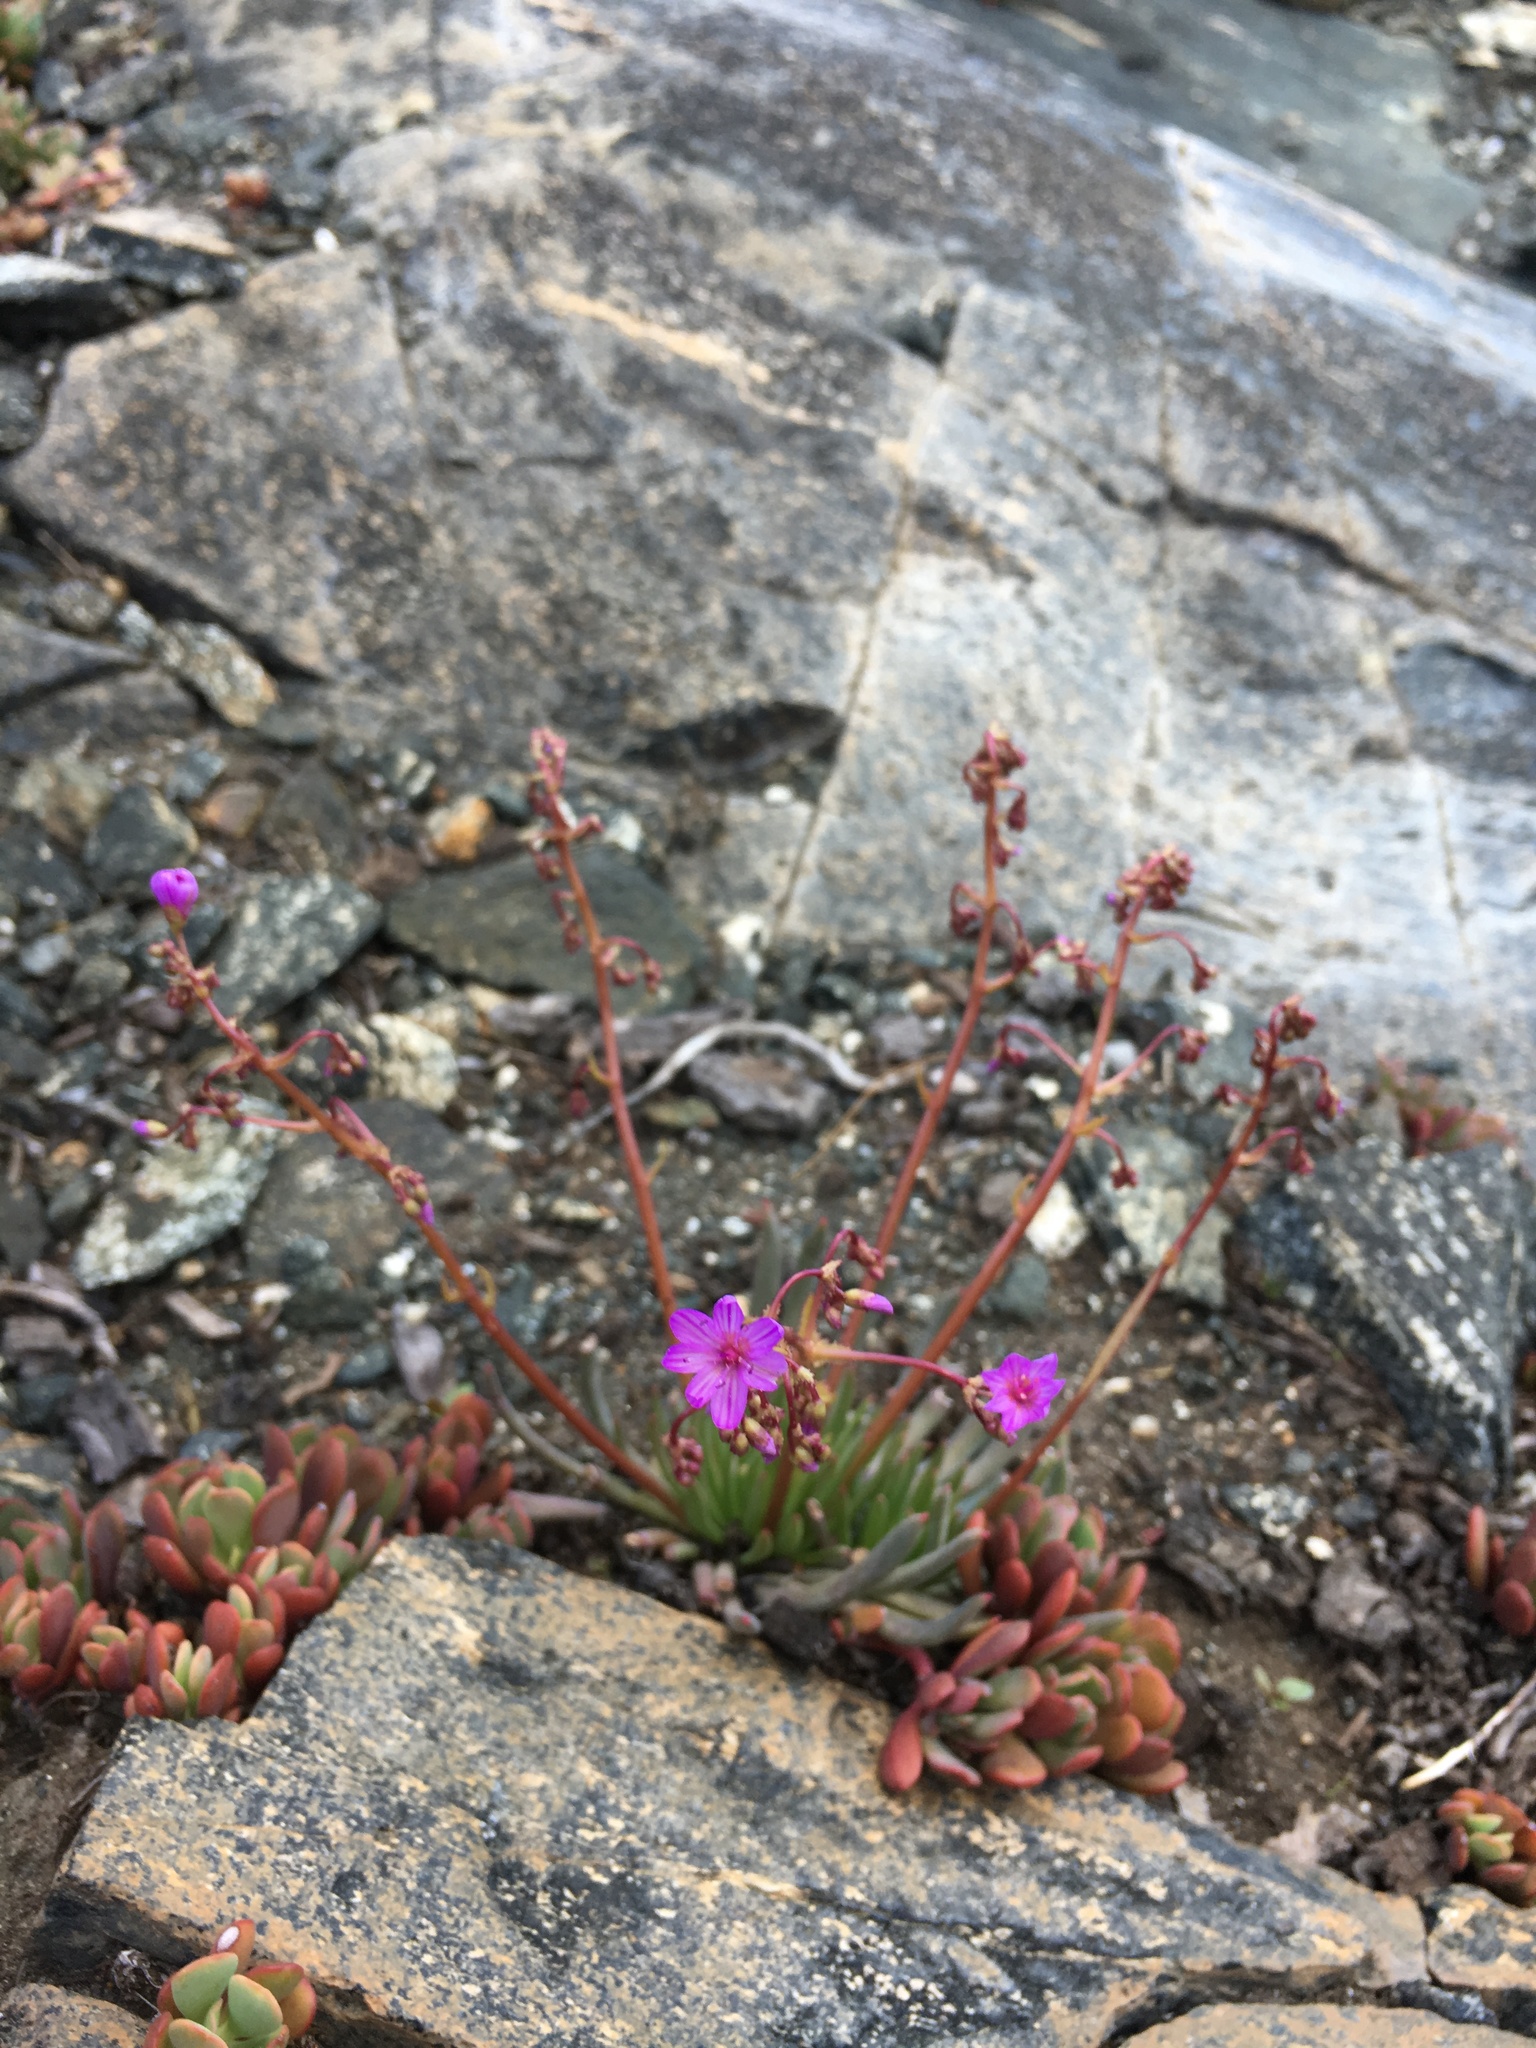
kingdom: Plantae
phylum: Tracheophyta
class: Magnoliopsida
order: Caryophyllales
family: Montiaceae
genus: Lewisia
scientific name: Lewisia leeana
